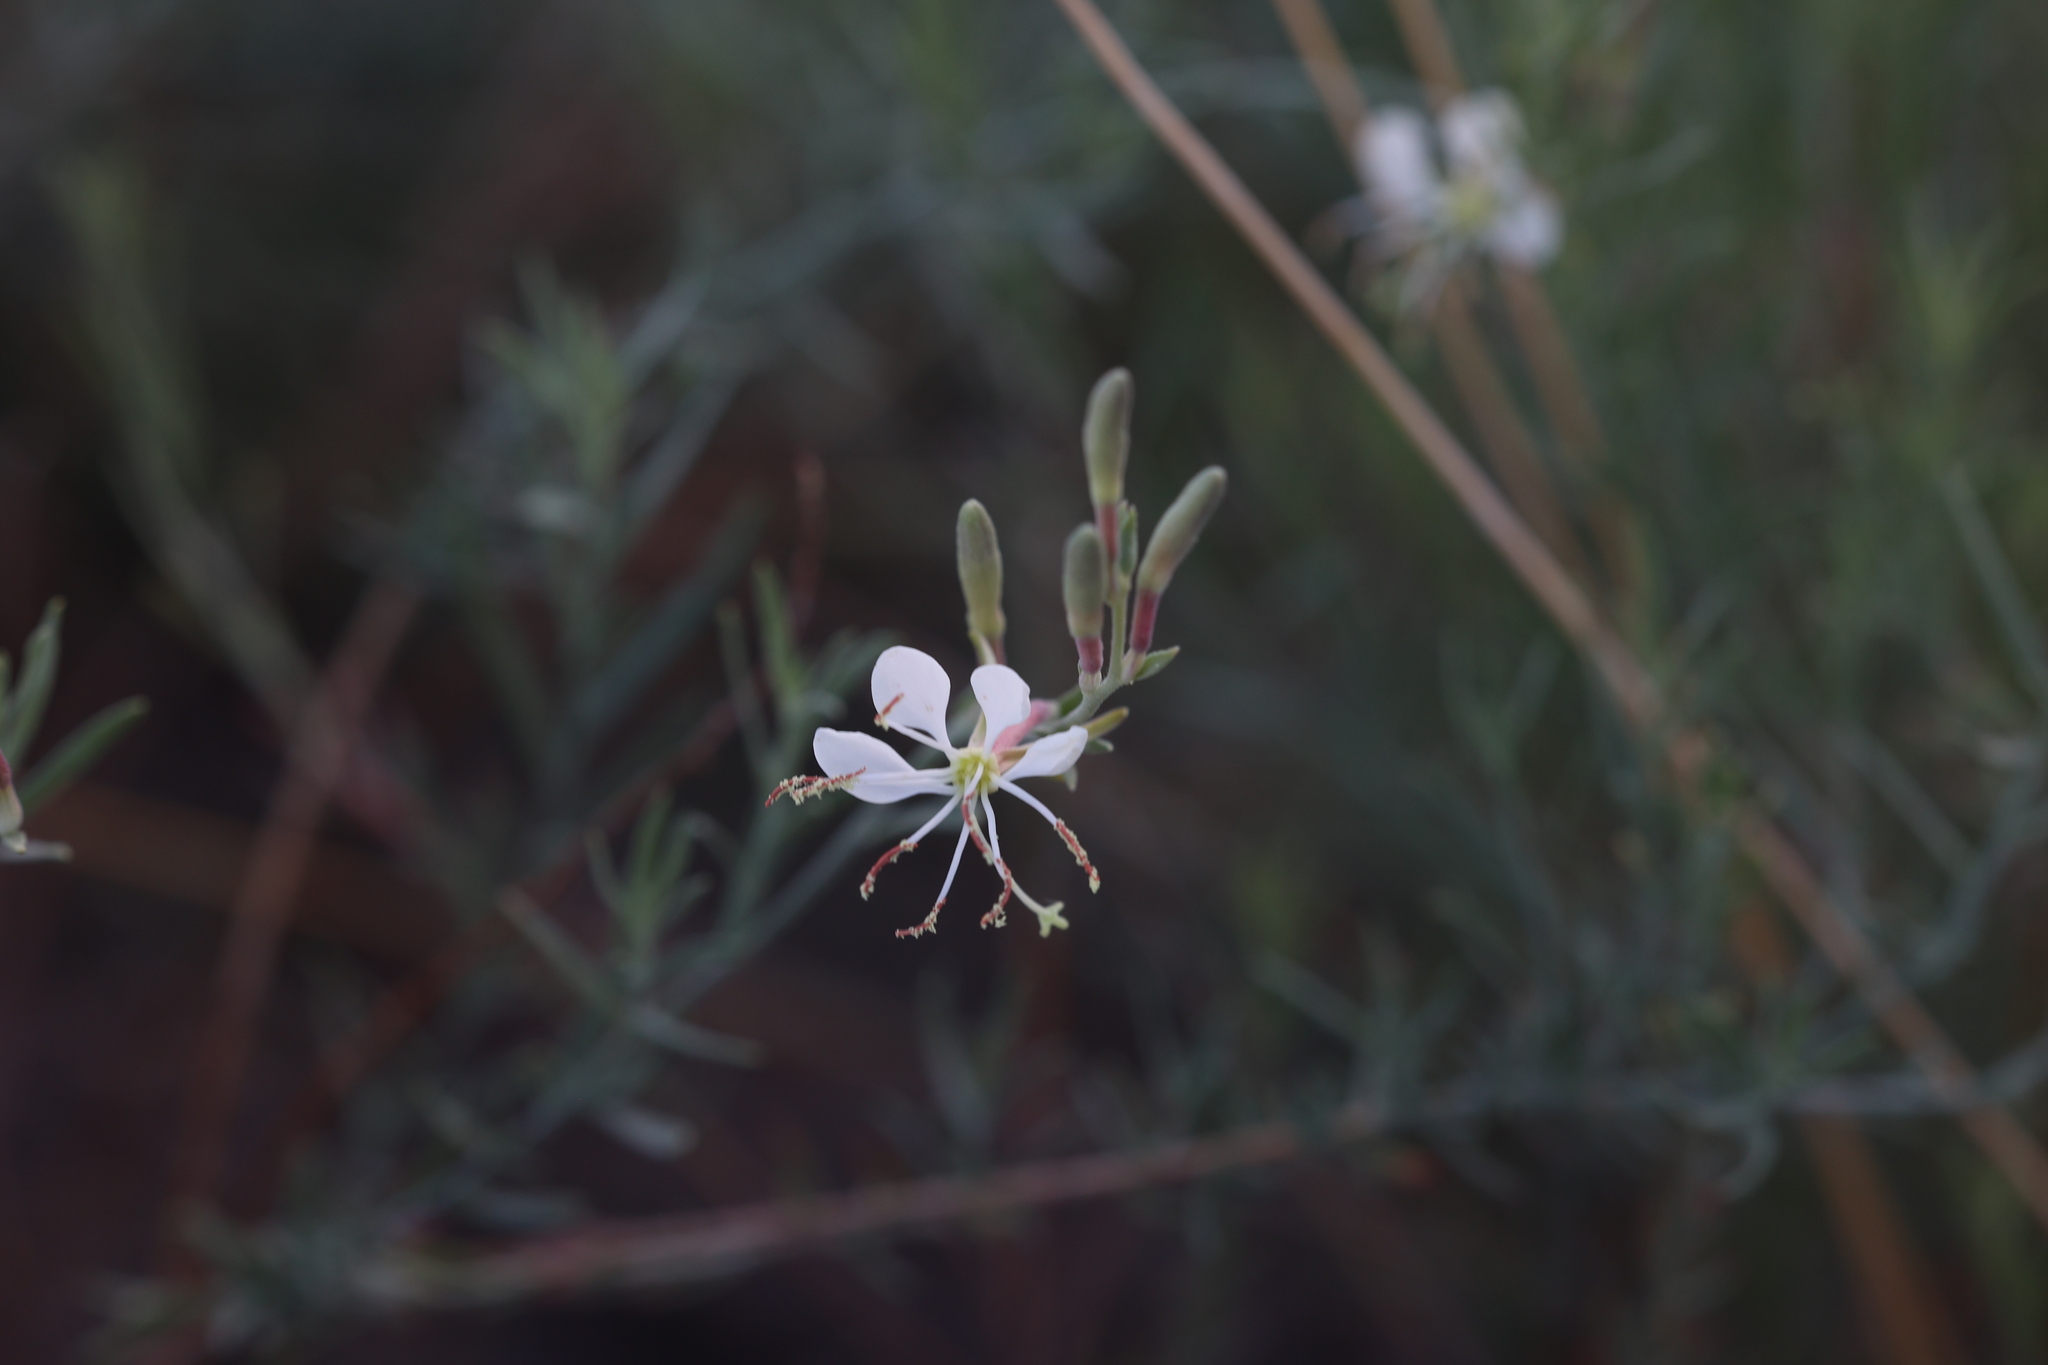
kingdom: Plantae
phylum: Tracheophyta
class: Magnoliopsida
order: Myrtales
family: Onagraceae
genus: Oenothera
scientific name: Oenothera suffrutescens
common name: Scarlet beeblossom
